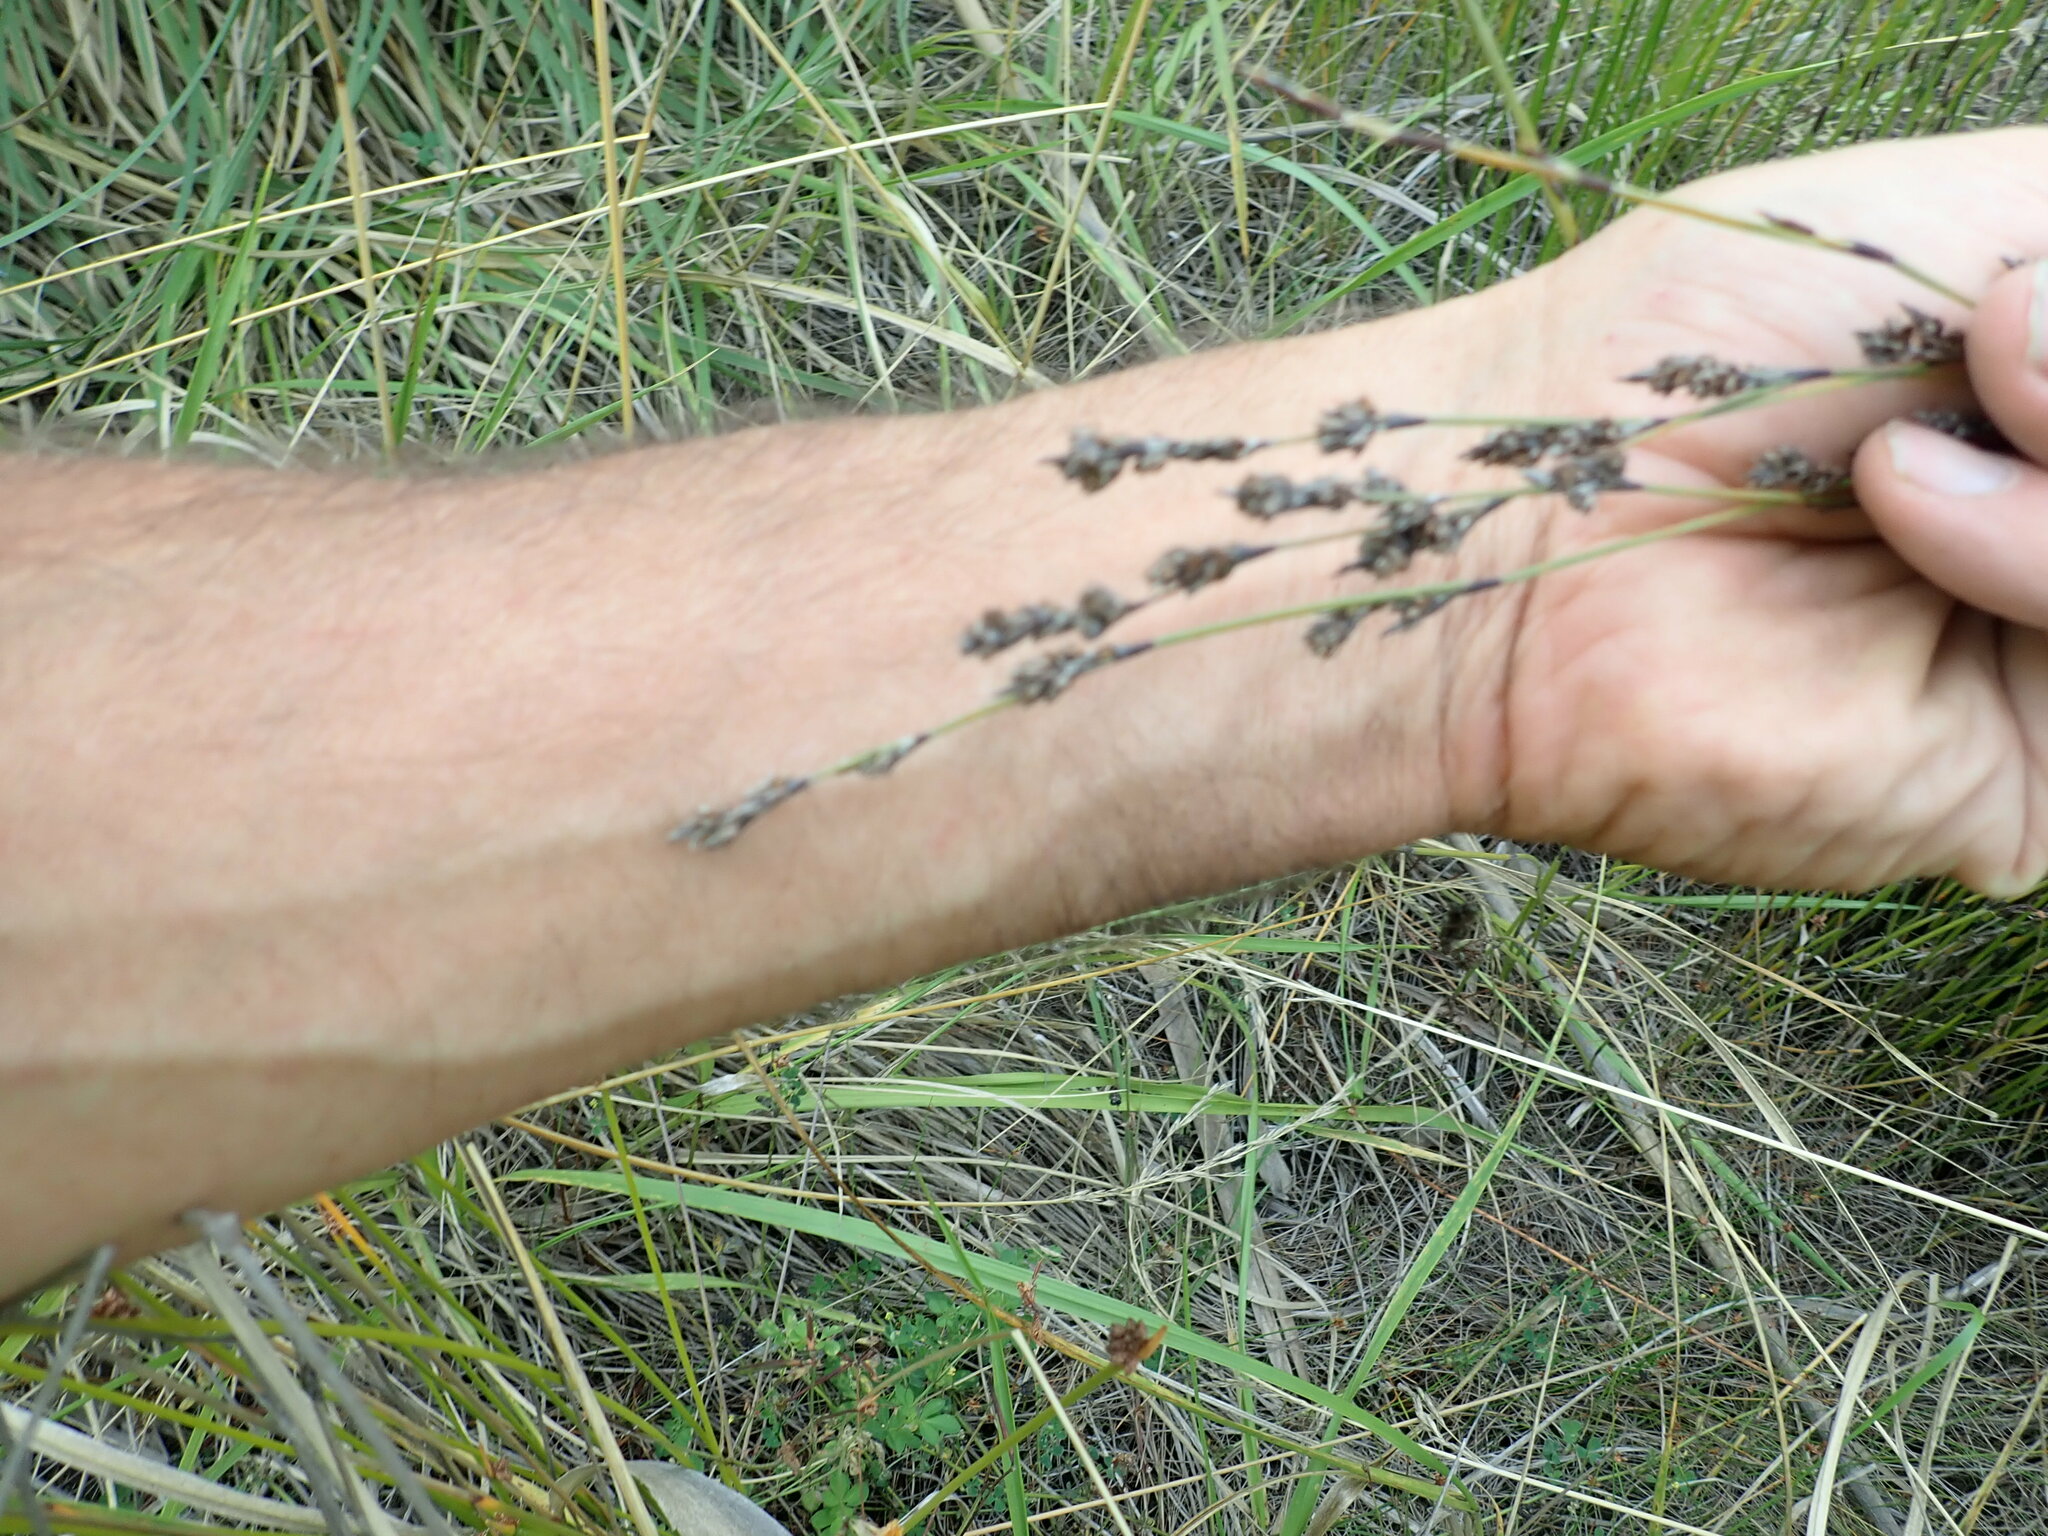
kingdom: Plantae
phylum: Tracheophyta
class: Liliopsida
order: Poales
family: Restionaceae
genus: Apodasmia
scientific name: Apodasmia similis
